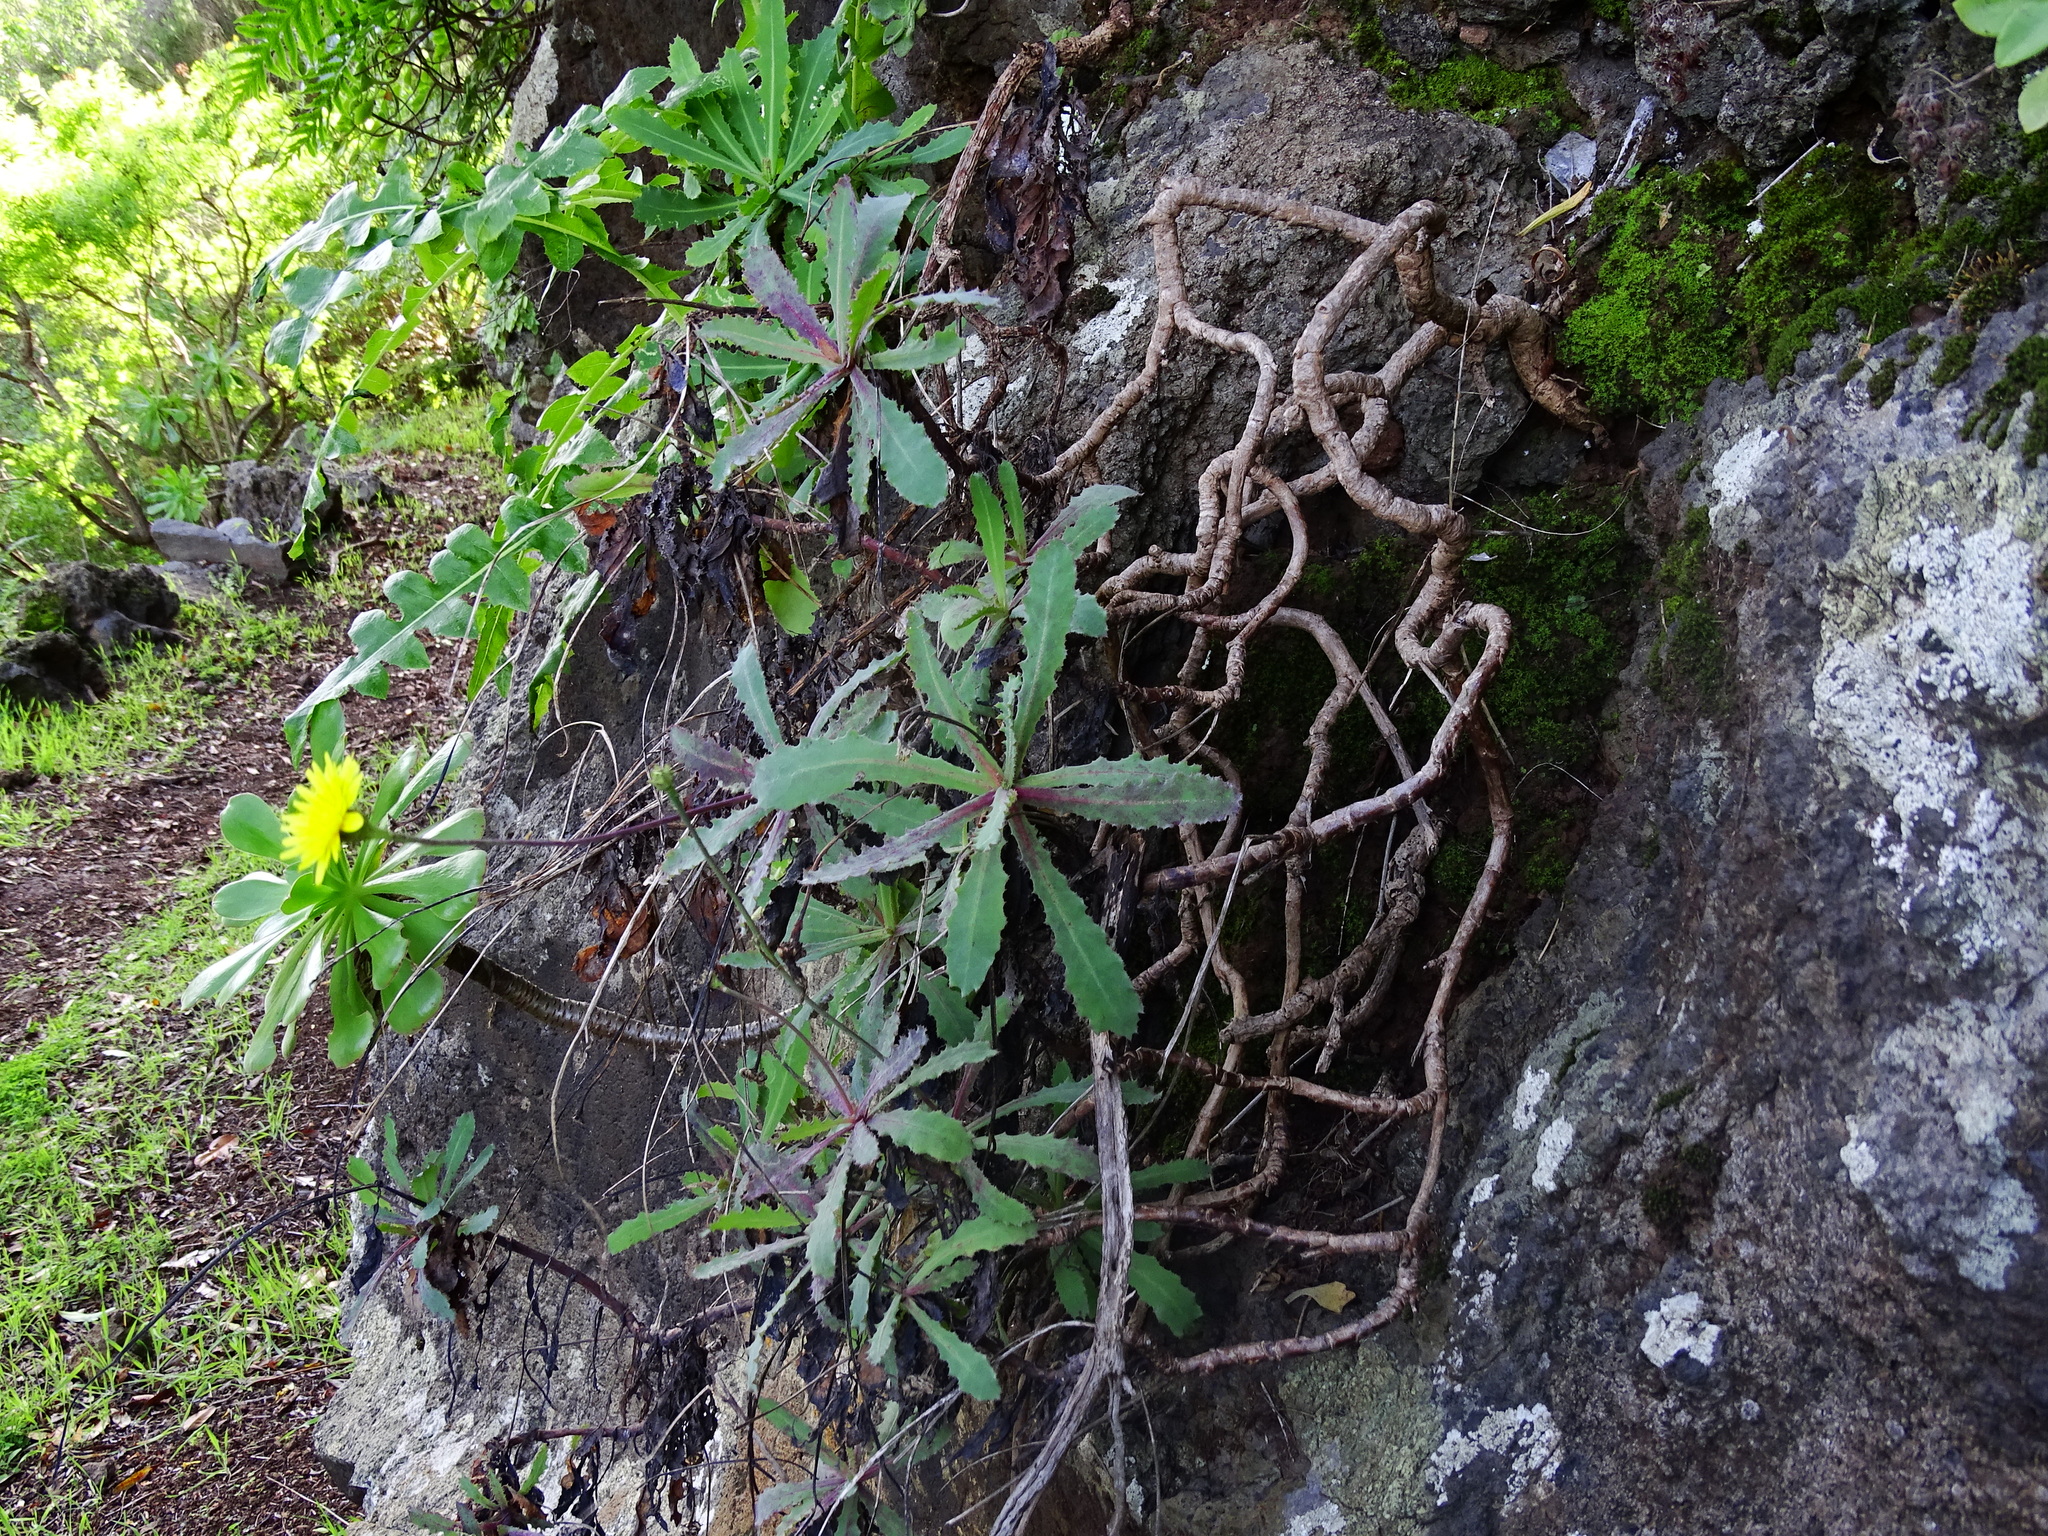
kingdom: Plantae
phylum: Tracheophyta
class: Magnoliopsida
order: Asterales
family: Asteraceae
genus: Reichardia
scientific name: Reichardia ligulata
